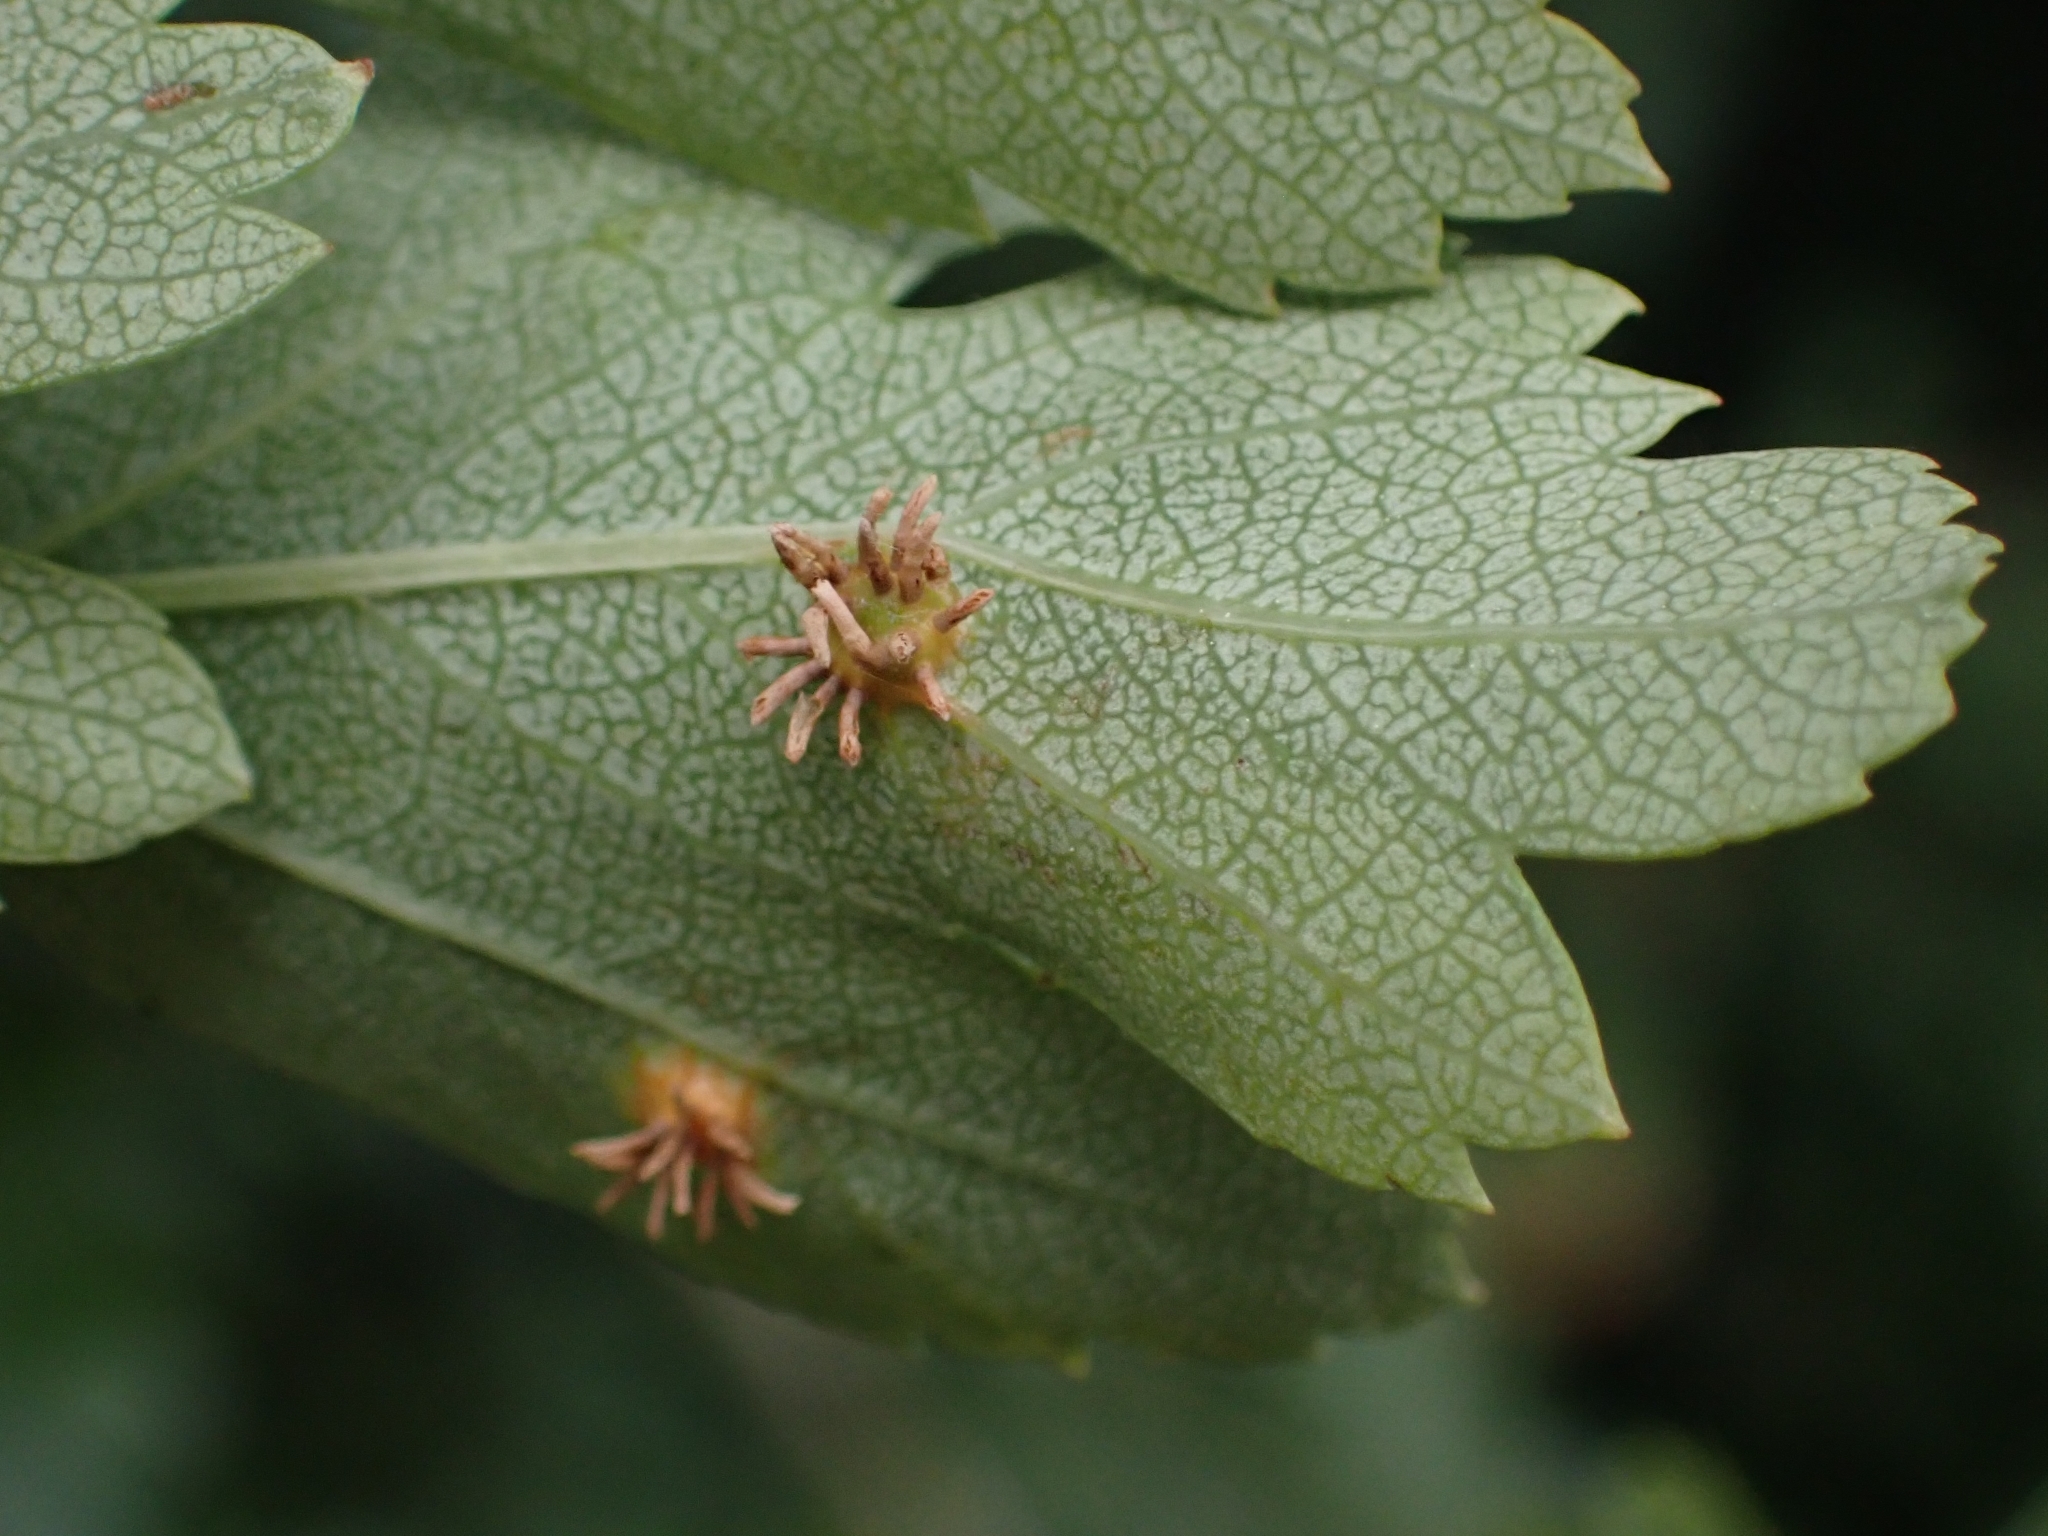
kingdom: Fungi
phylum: Basidiomycota
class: Pucciniomycetes
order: Pucciniales
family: Gymnosporangiaceae
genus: Gymnosporangium
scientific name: Gymnosporangium clavariiforme
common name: Tongues of fire
